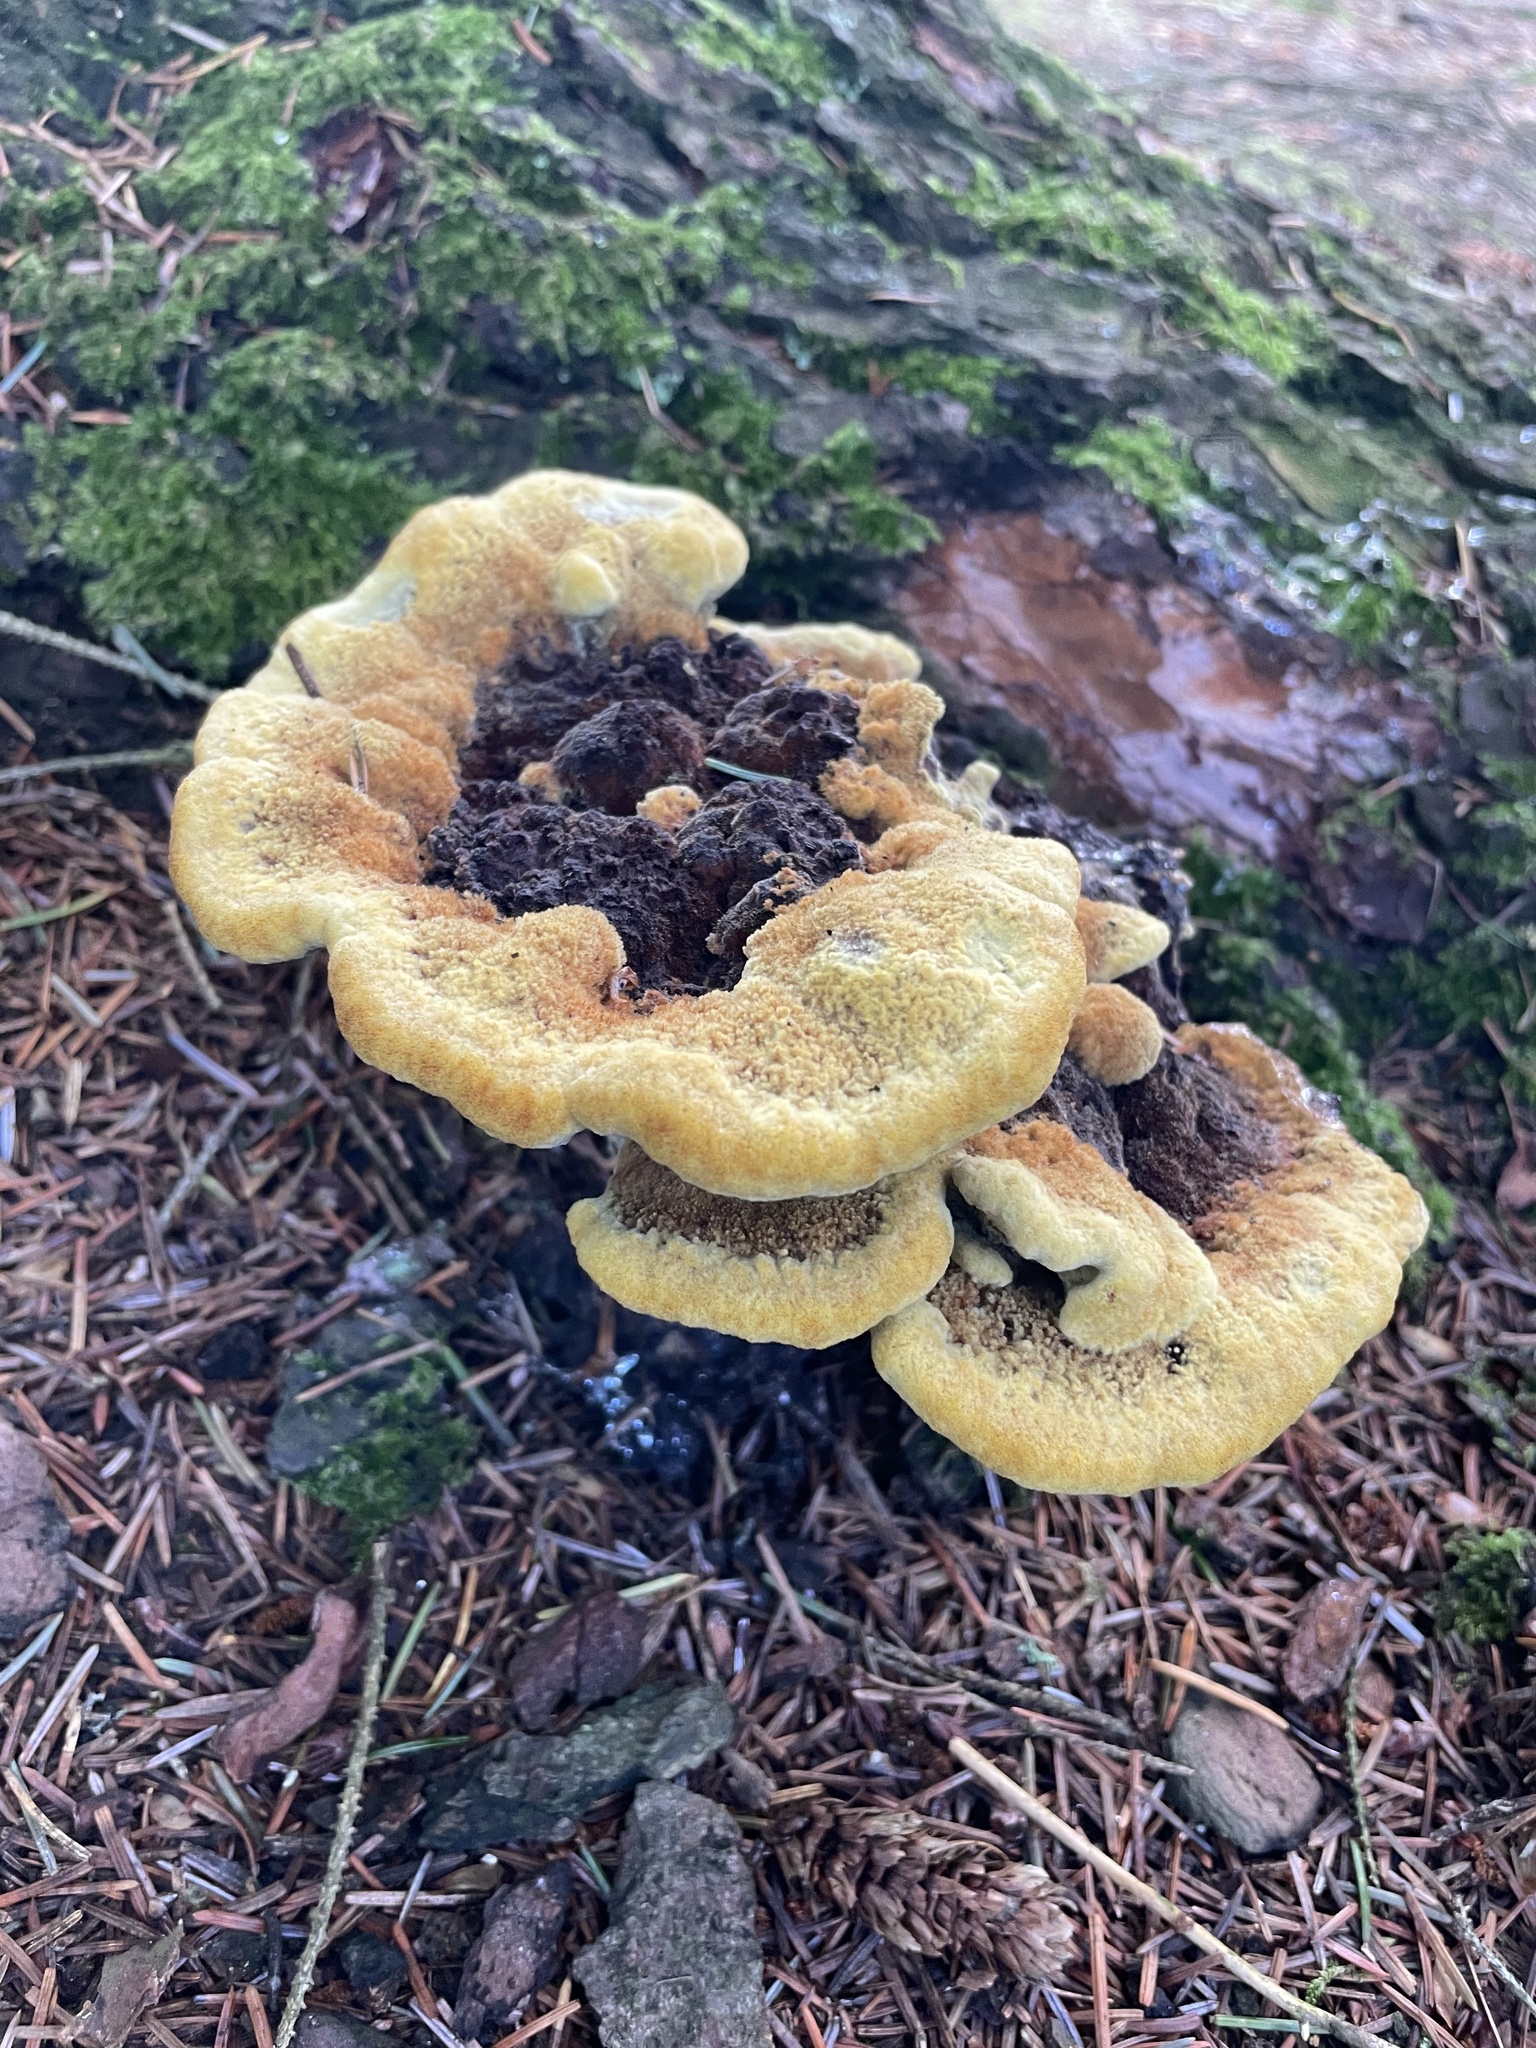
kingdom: Fungi
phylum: Basidiomycota
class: Agaricomycetes
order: Polyporales
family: Laetiporaceae
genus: Phaeolus
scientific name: Phaeolus schweinitzii
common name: Dyer's mazegill
